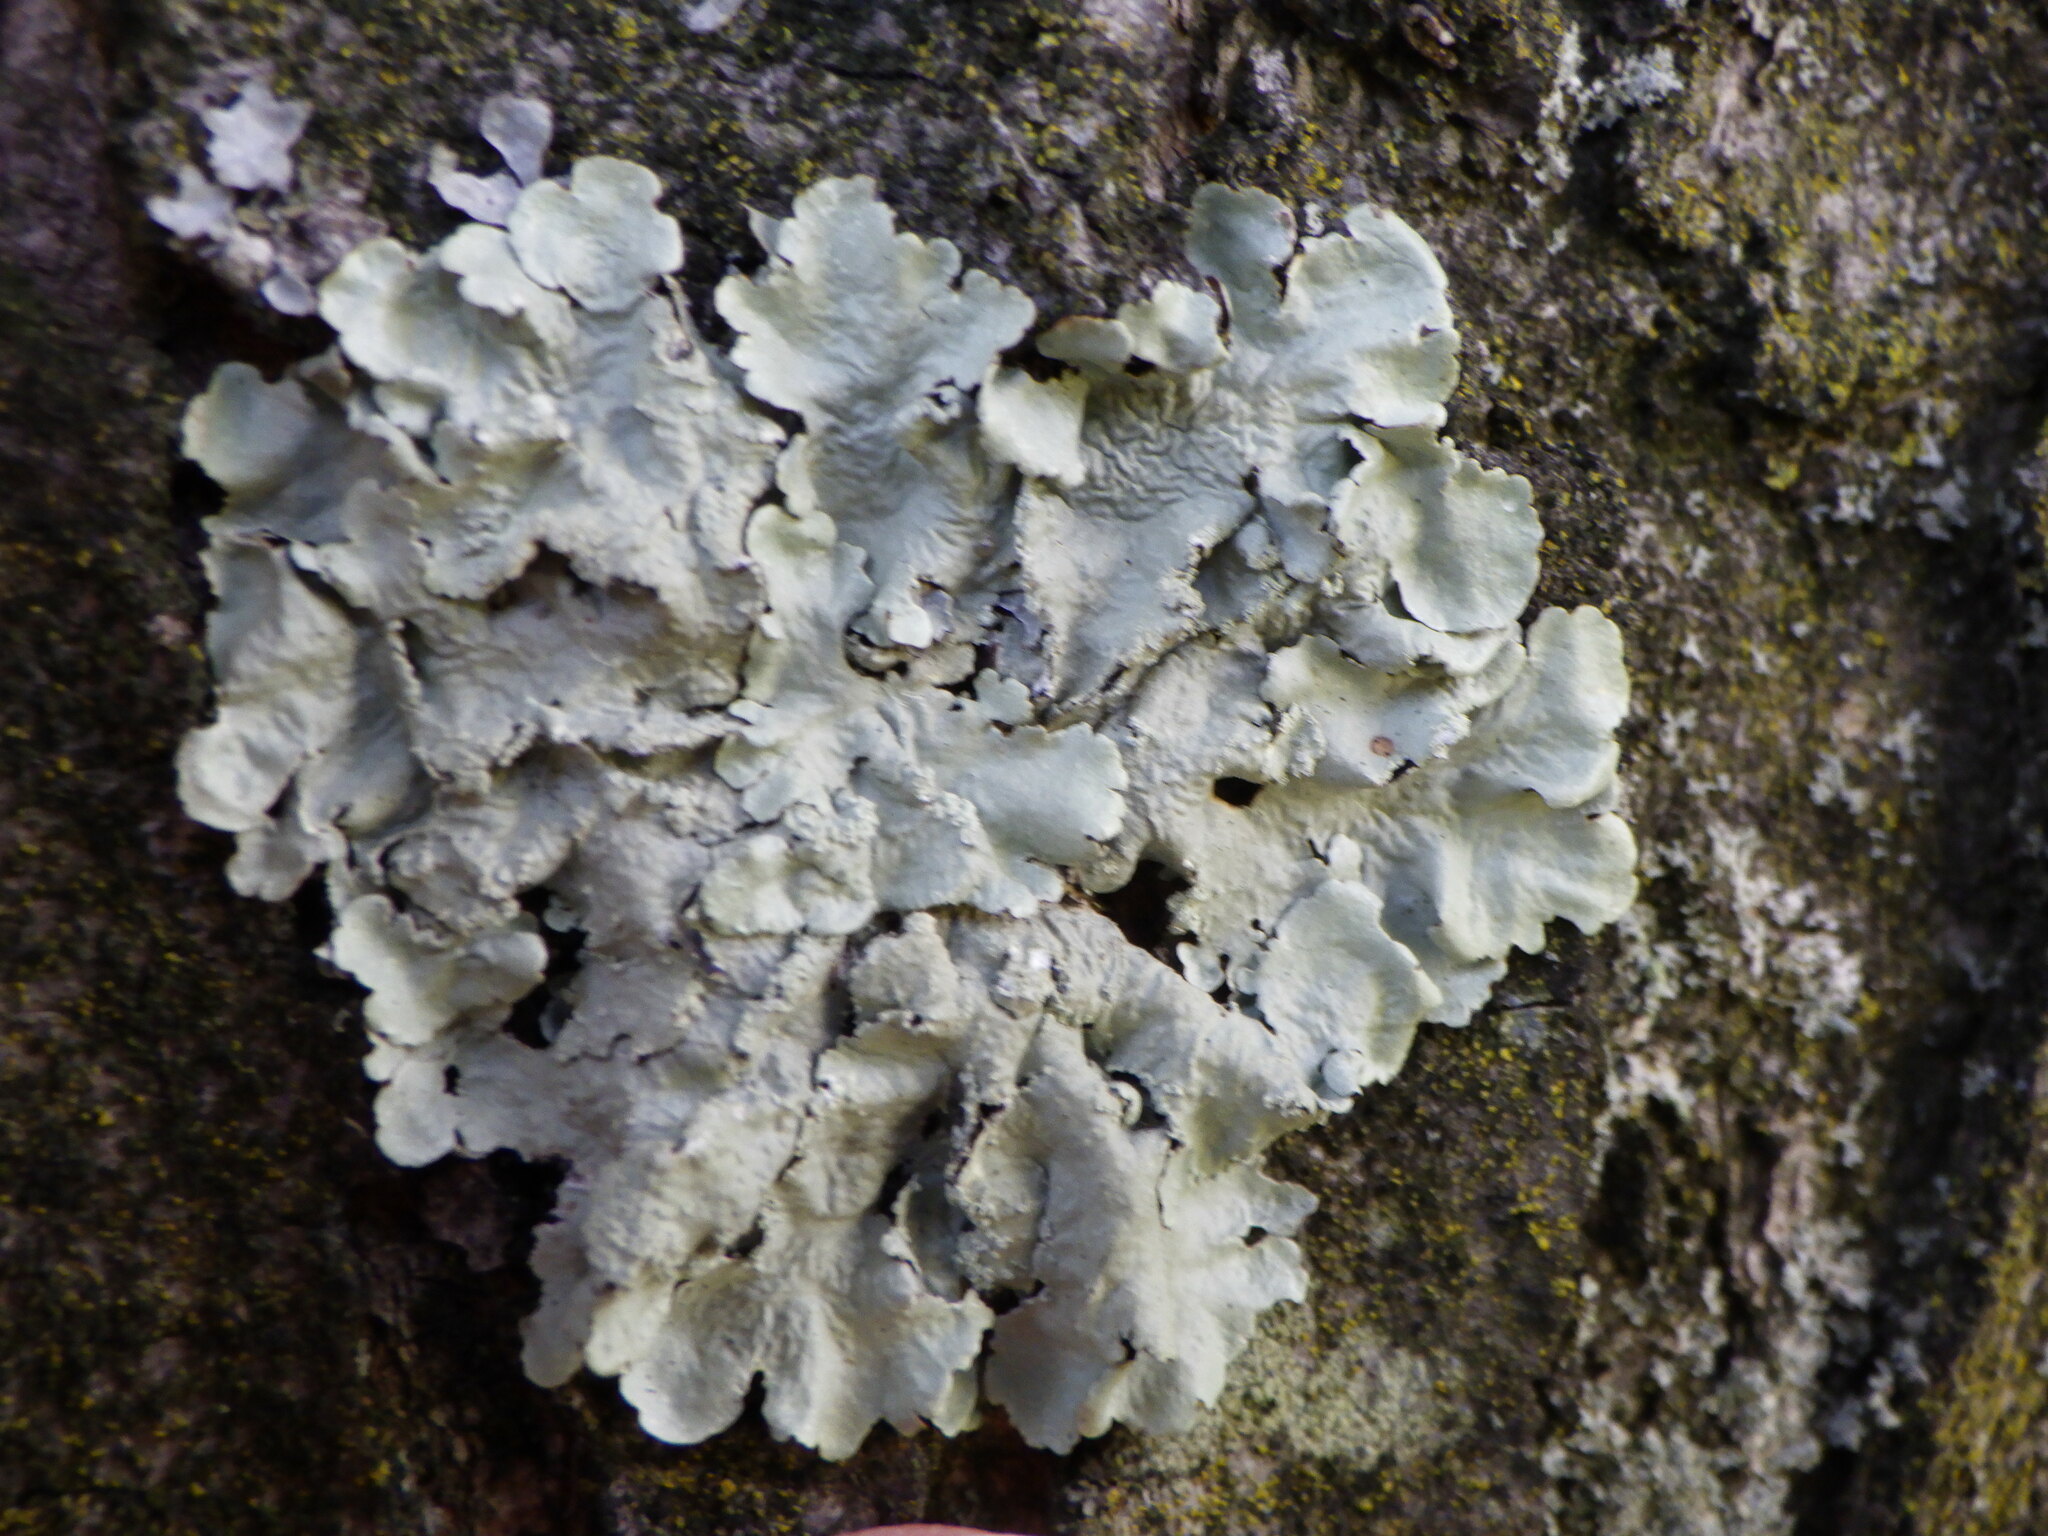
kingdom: Fungi
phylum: Ascomycota
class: Lecanoromycetes
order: Lecanorales
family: Parmeliaceae
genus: Flavoparmelia
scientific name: Flavoparmelia caperata
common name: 40-mile per hour lichen
